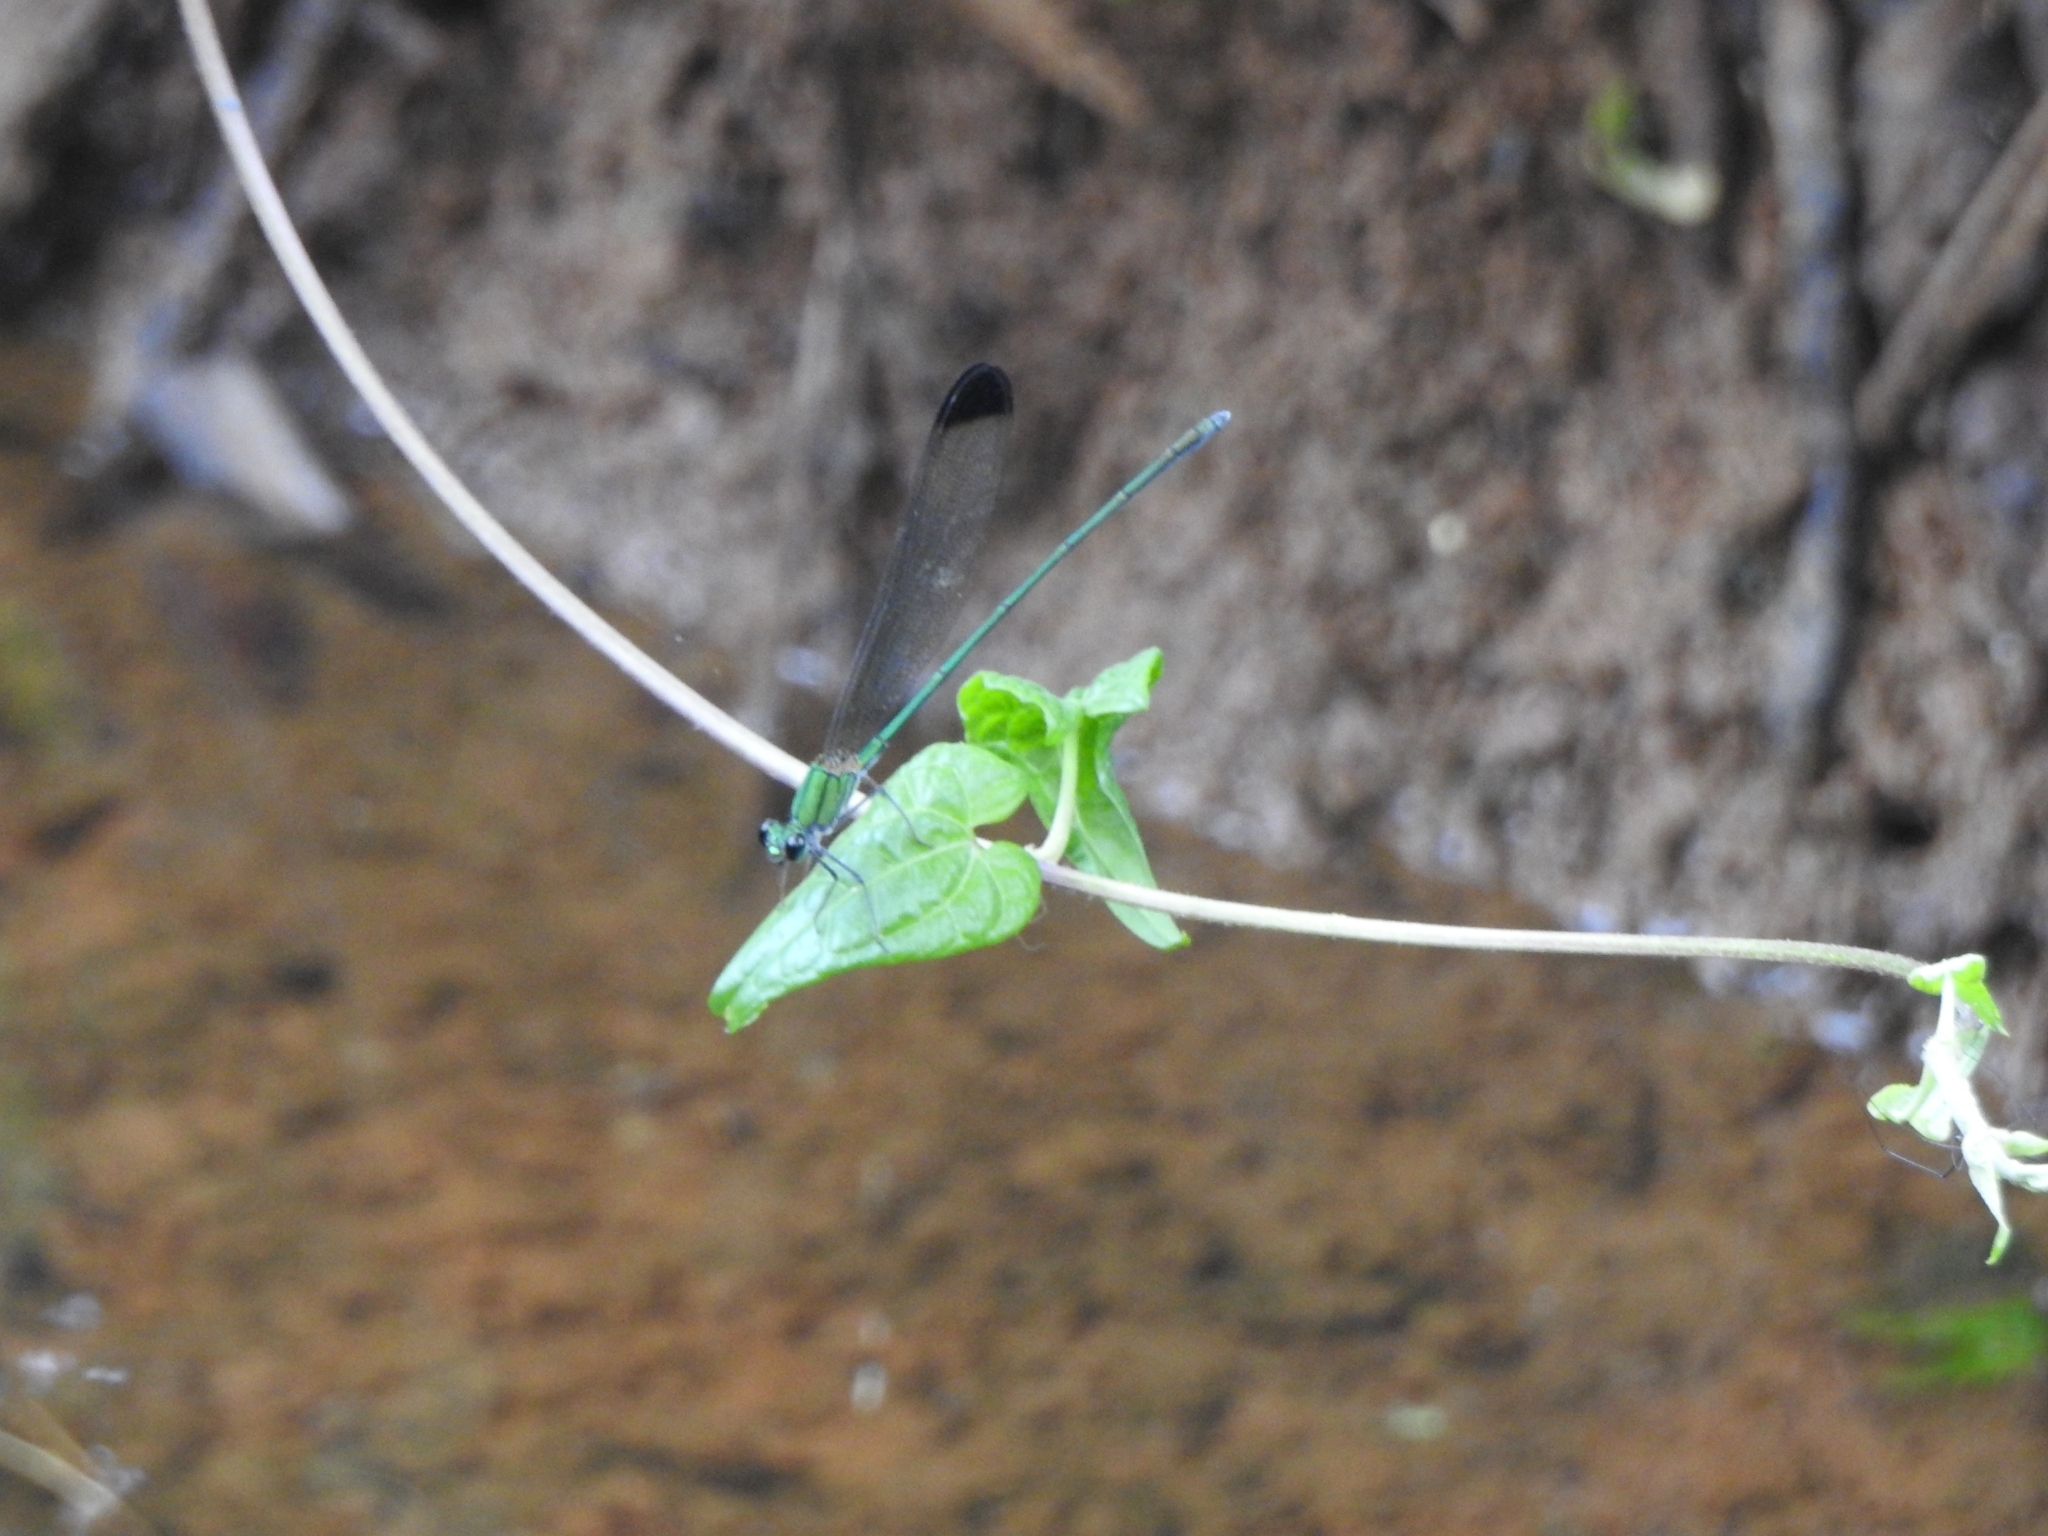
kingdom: Animalia
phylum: Arthropoda
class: Insecta
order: Odonata
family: Calopterygidae
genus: Vestalis
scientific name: Vestalis apicalis
